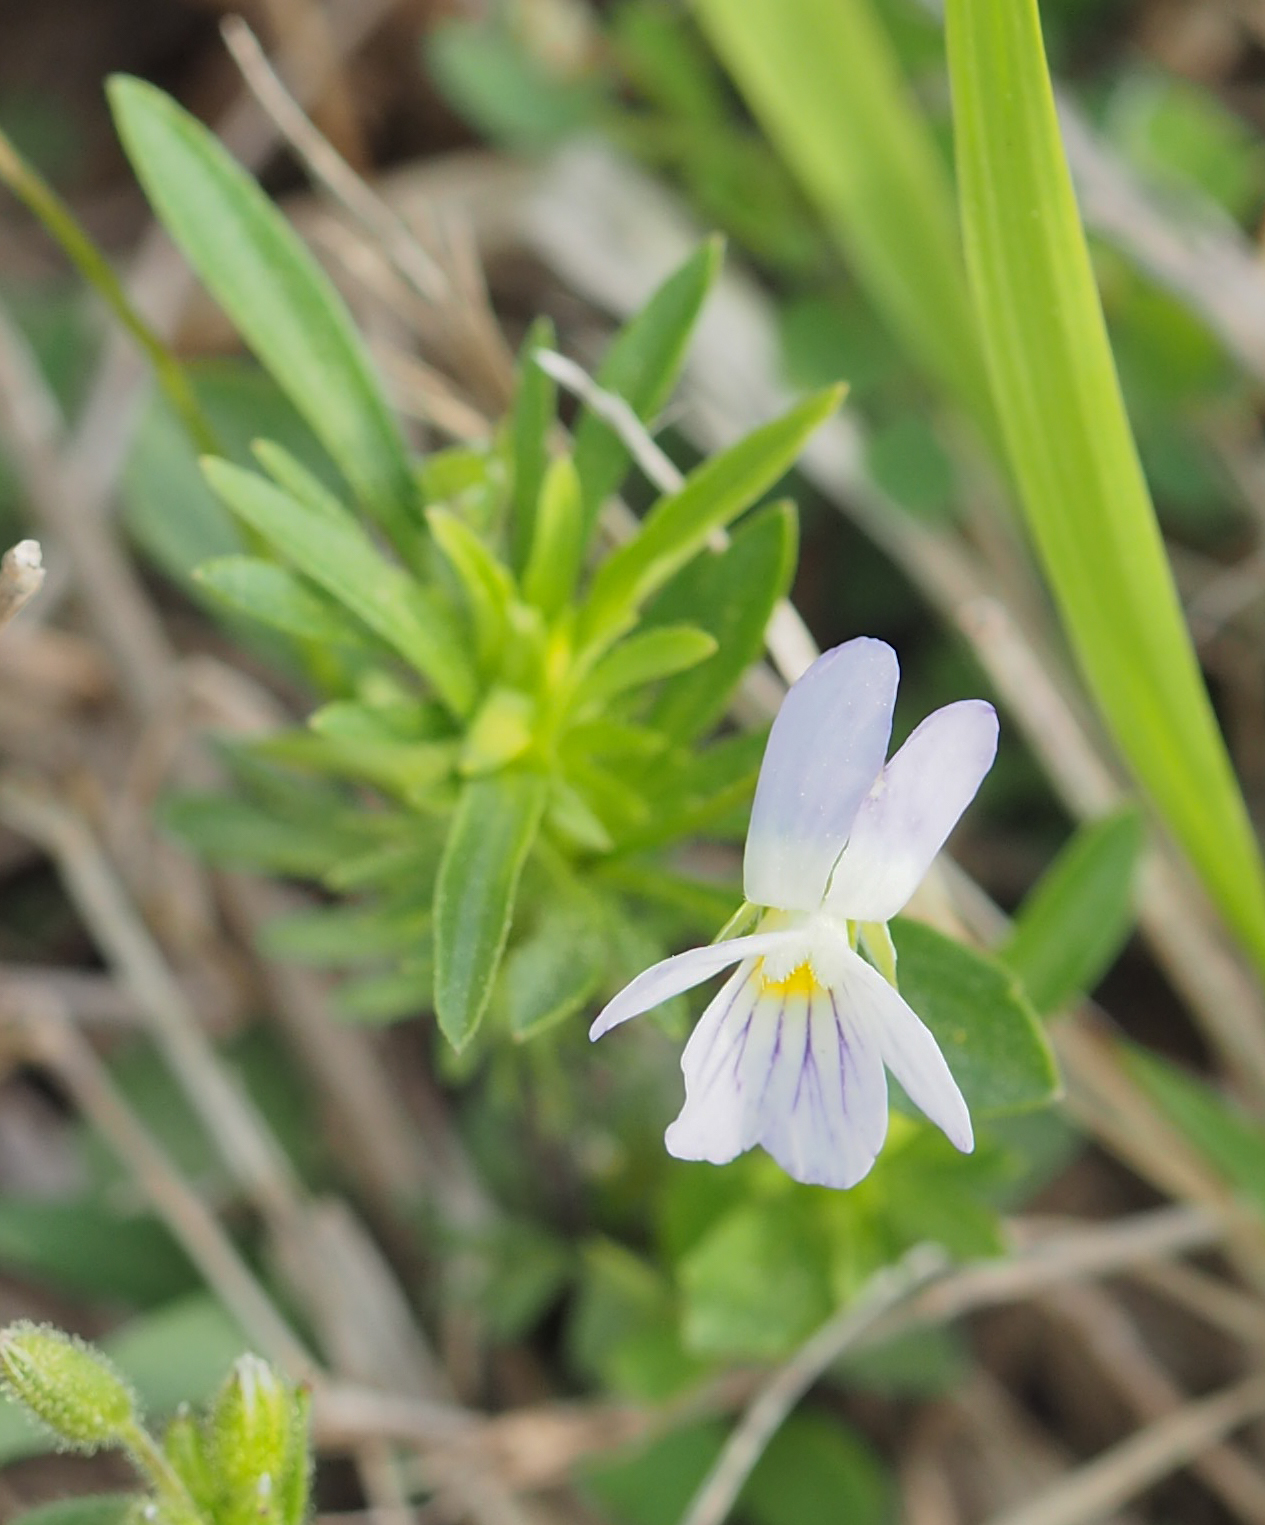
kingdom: Plantae
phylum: Tracheophyta
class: Magnoliopsida
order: Malpighiales
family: Violaceae
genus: Viola
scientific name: Viola rafinesquei
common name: American field pansy
